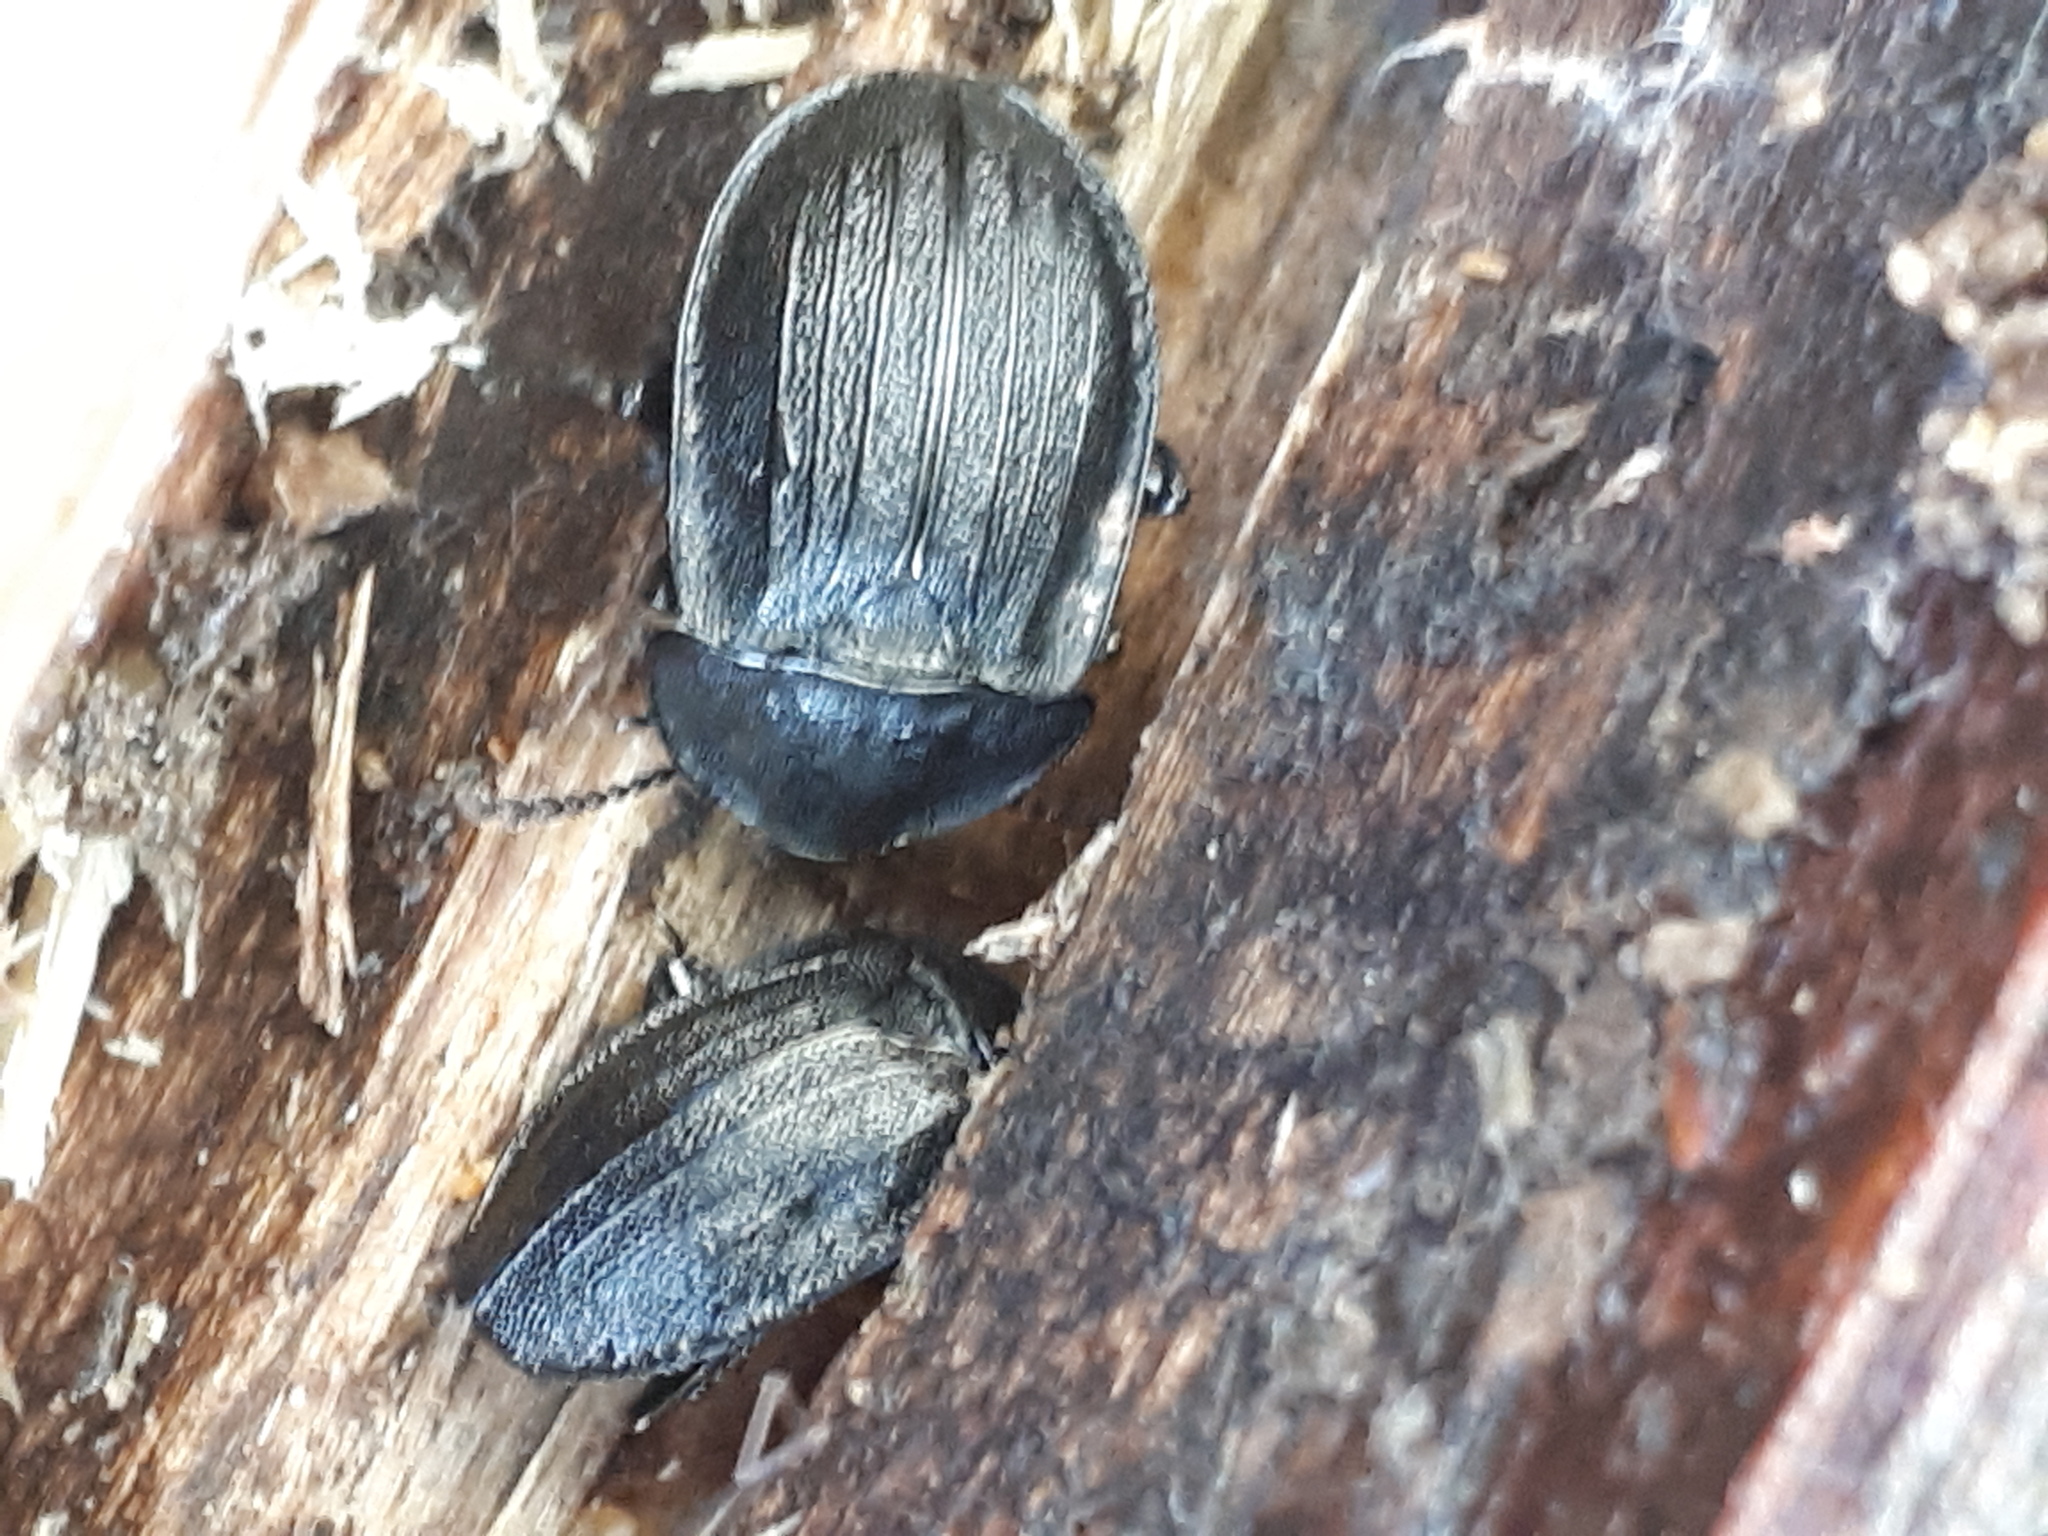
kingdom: Animalia
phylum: Arthropoda
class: Insecta
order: Coleoptera
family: Staphylinidae
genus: Silpha
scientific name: Silpha atrata
